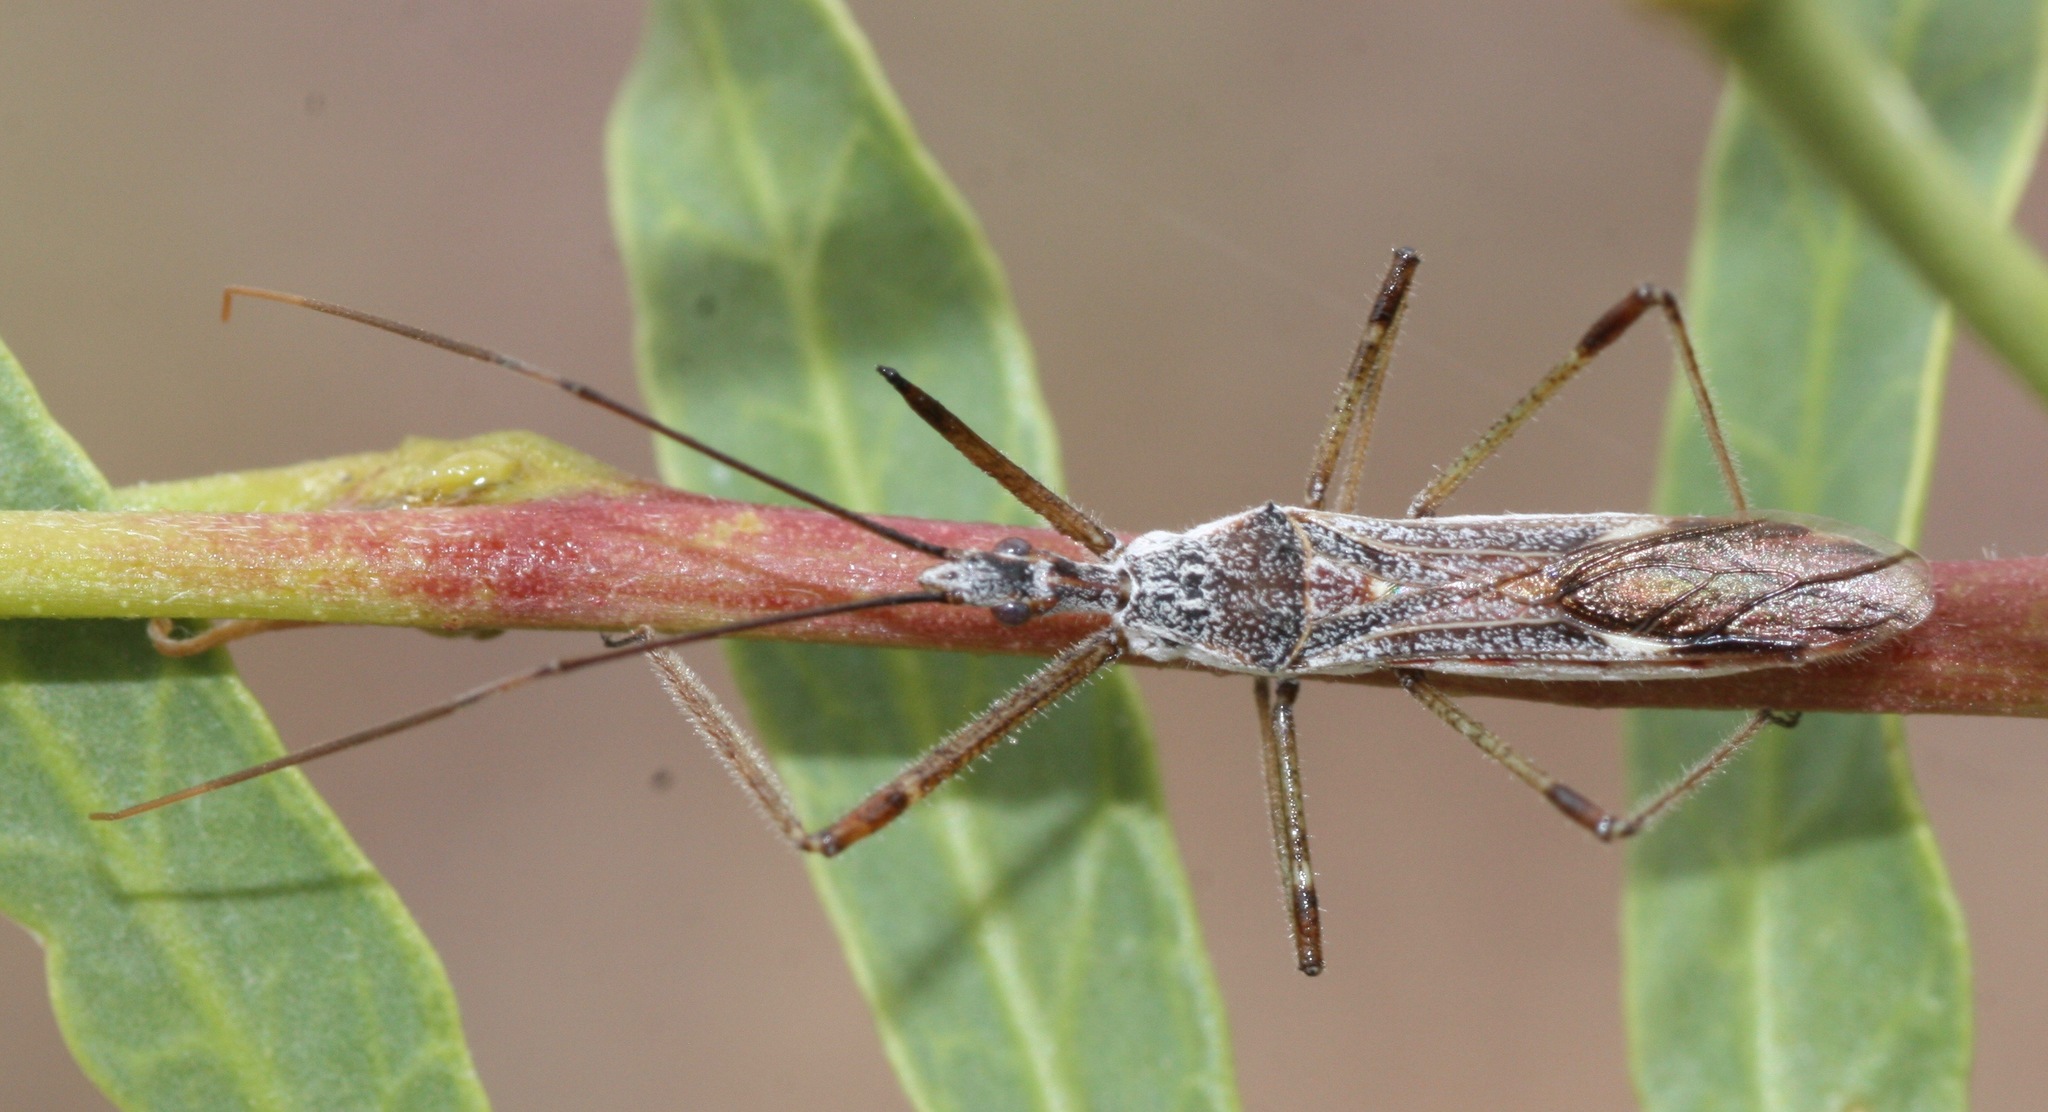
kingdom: Animalia
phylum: Arthropoda
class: Insecta
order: Hemiptera
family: Reduviidae
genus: Zelus
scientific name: Zelus tetracanthus
